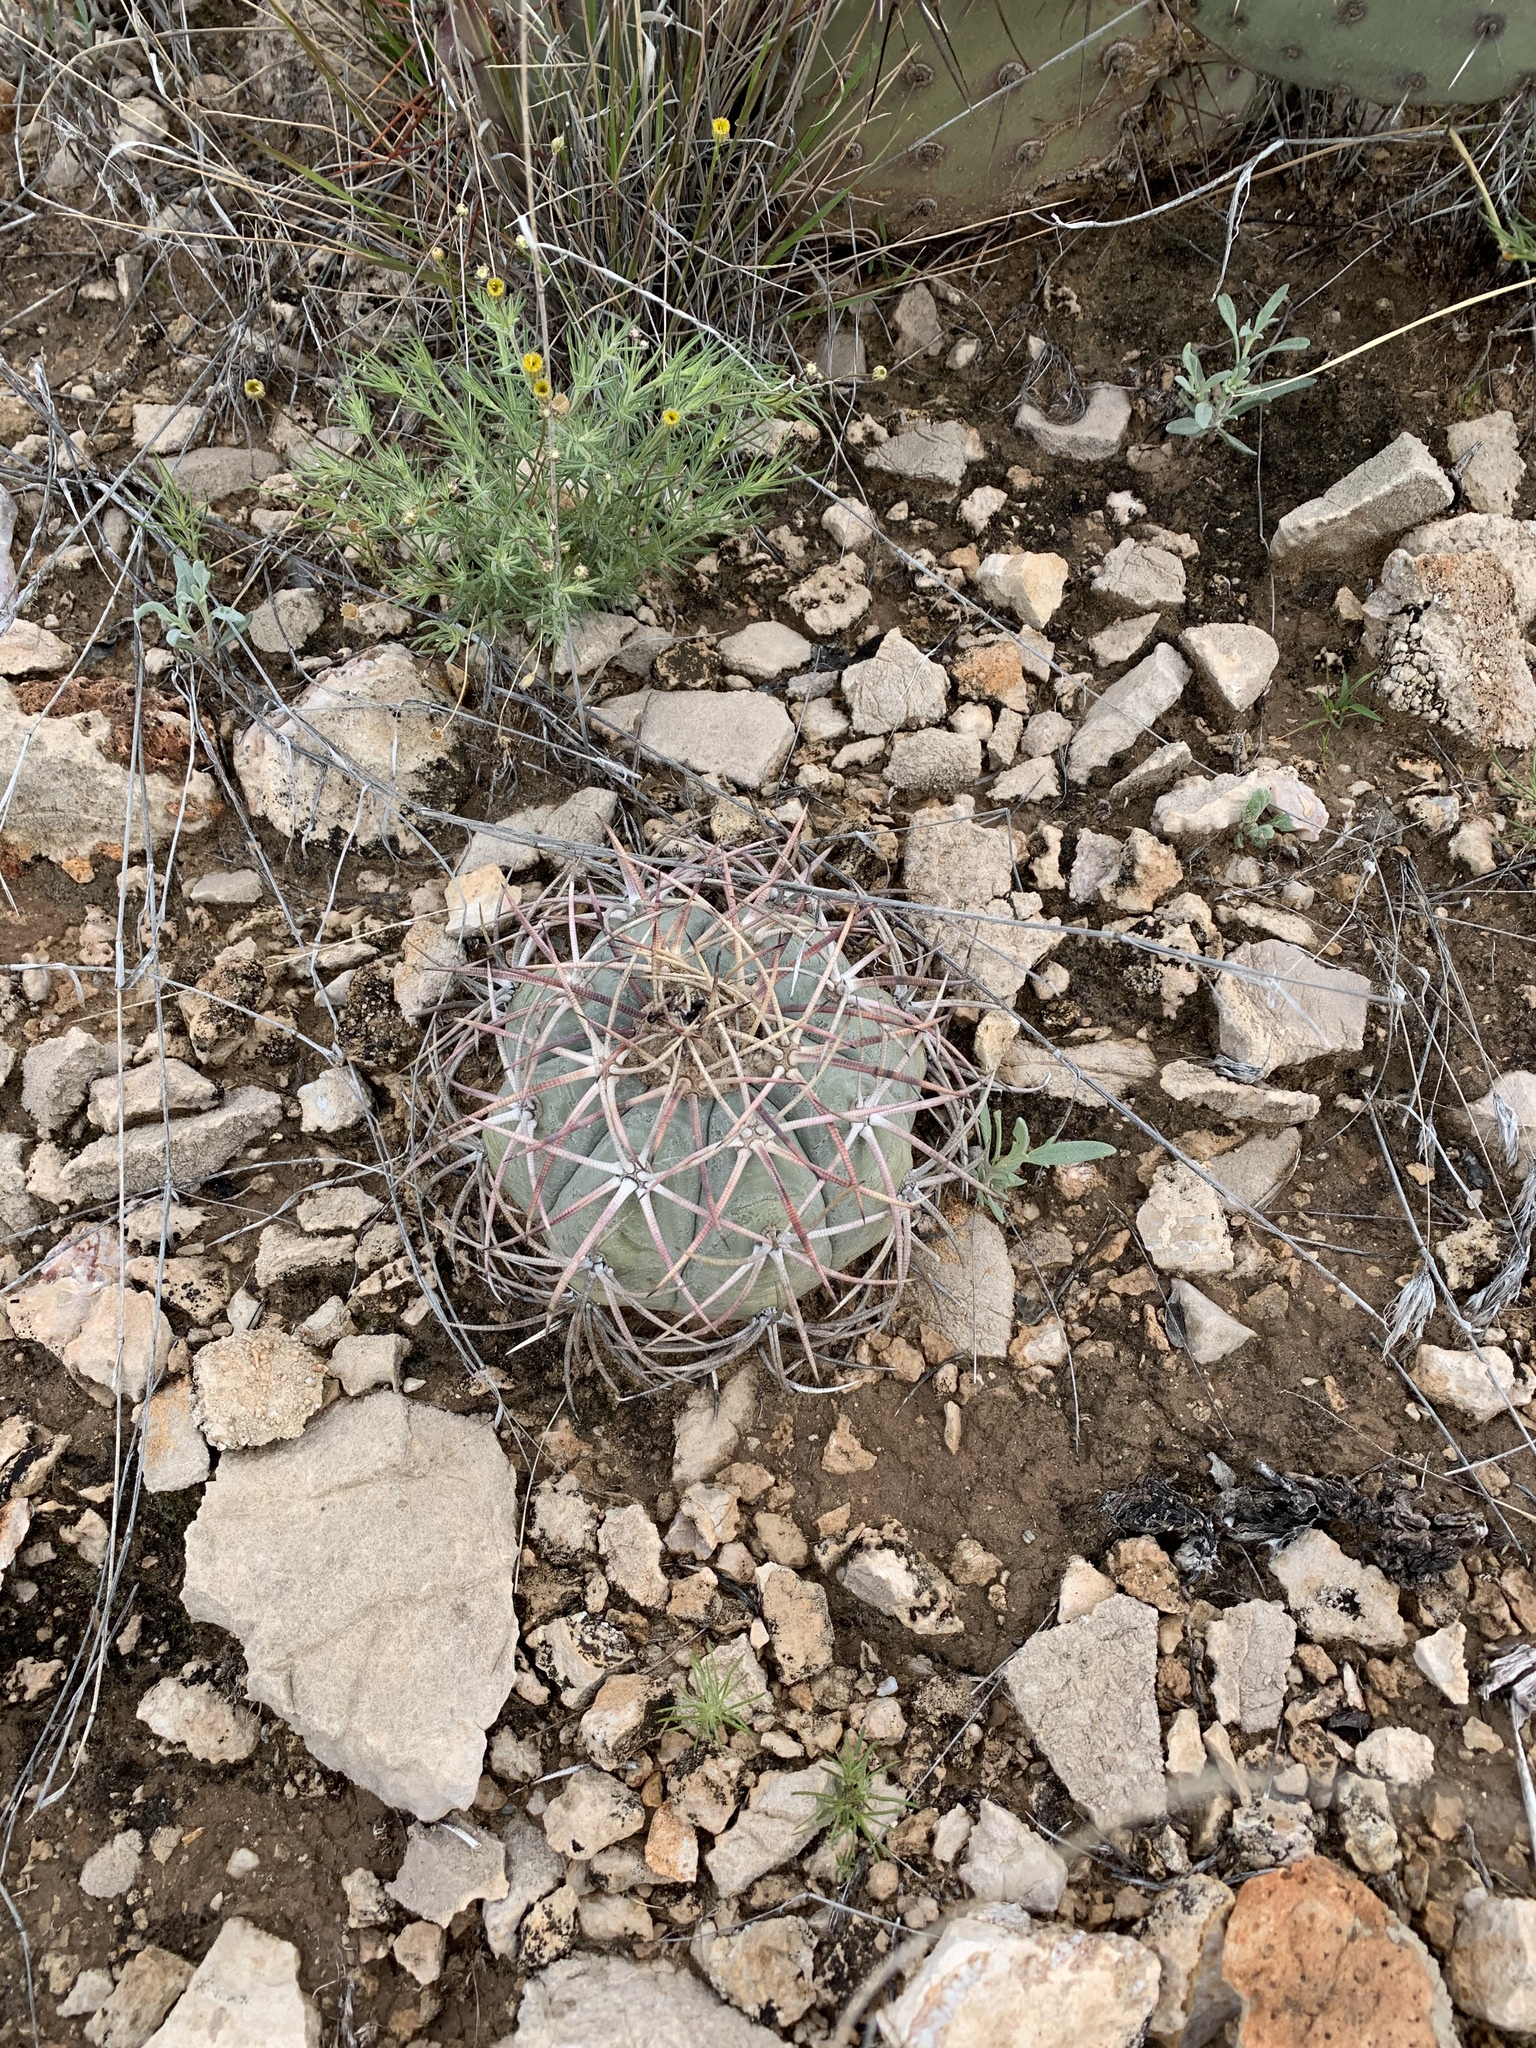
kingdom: Plantae
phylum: Tracheophyta
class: Magnoliopsida
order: Caryophyllales
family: Cactaceae
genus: Echinocactus
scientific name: Echinocactus horizonthalonius
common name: Devilshead
